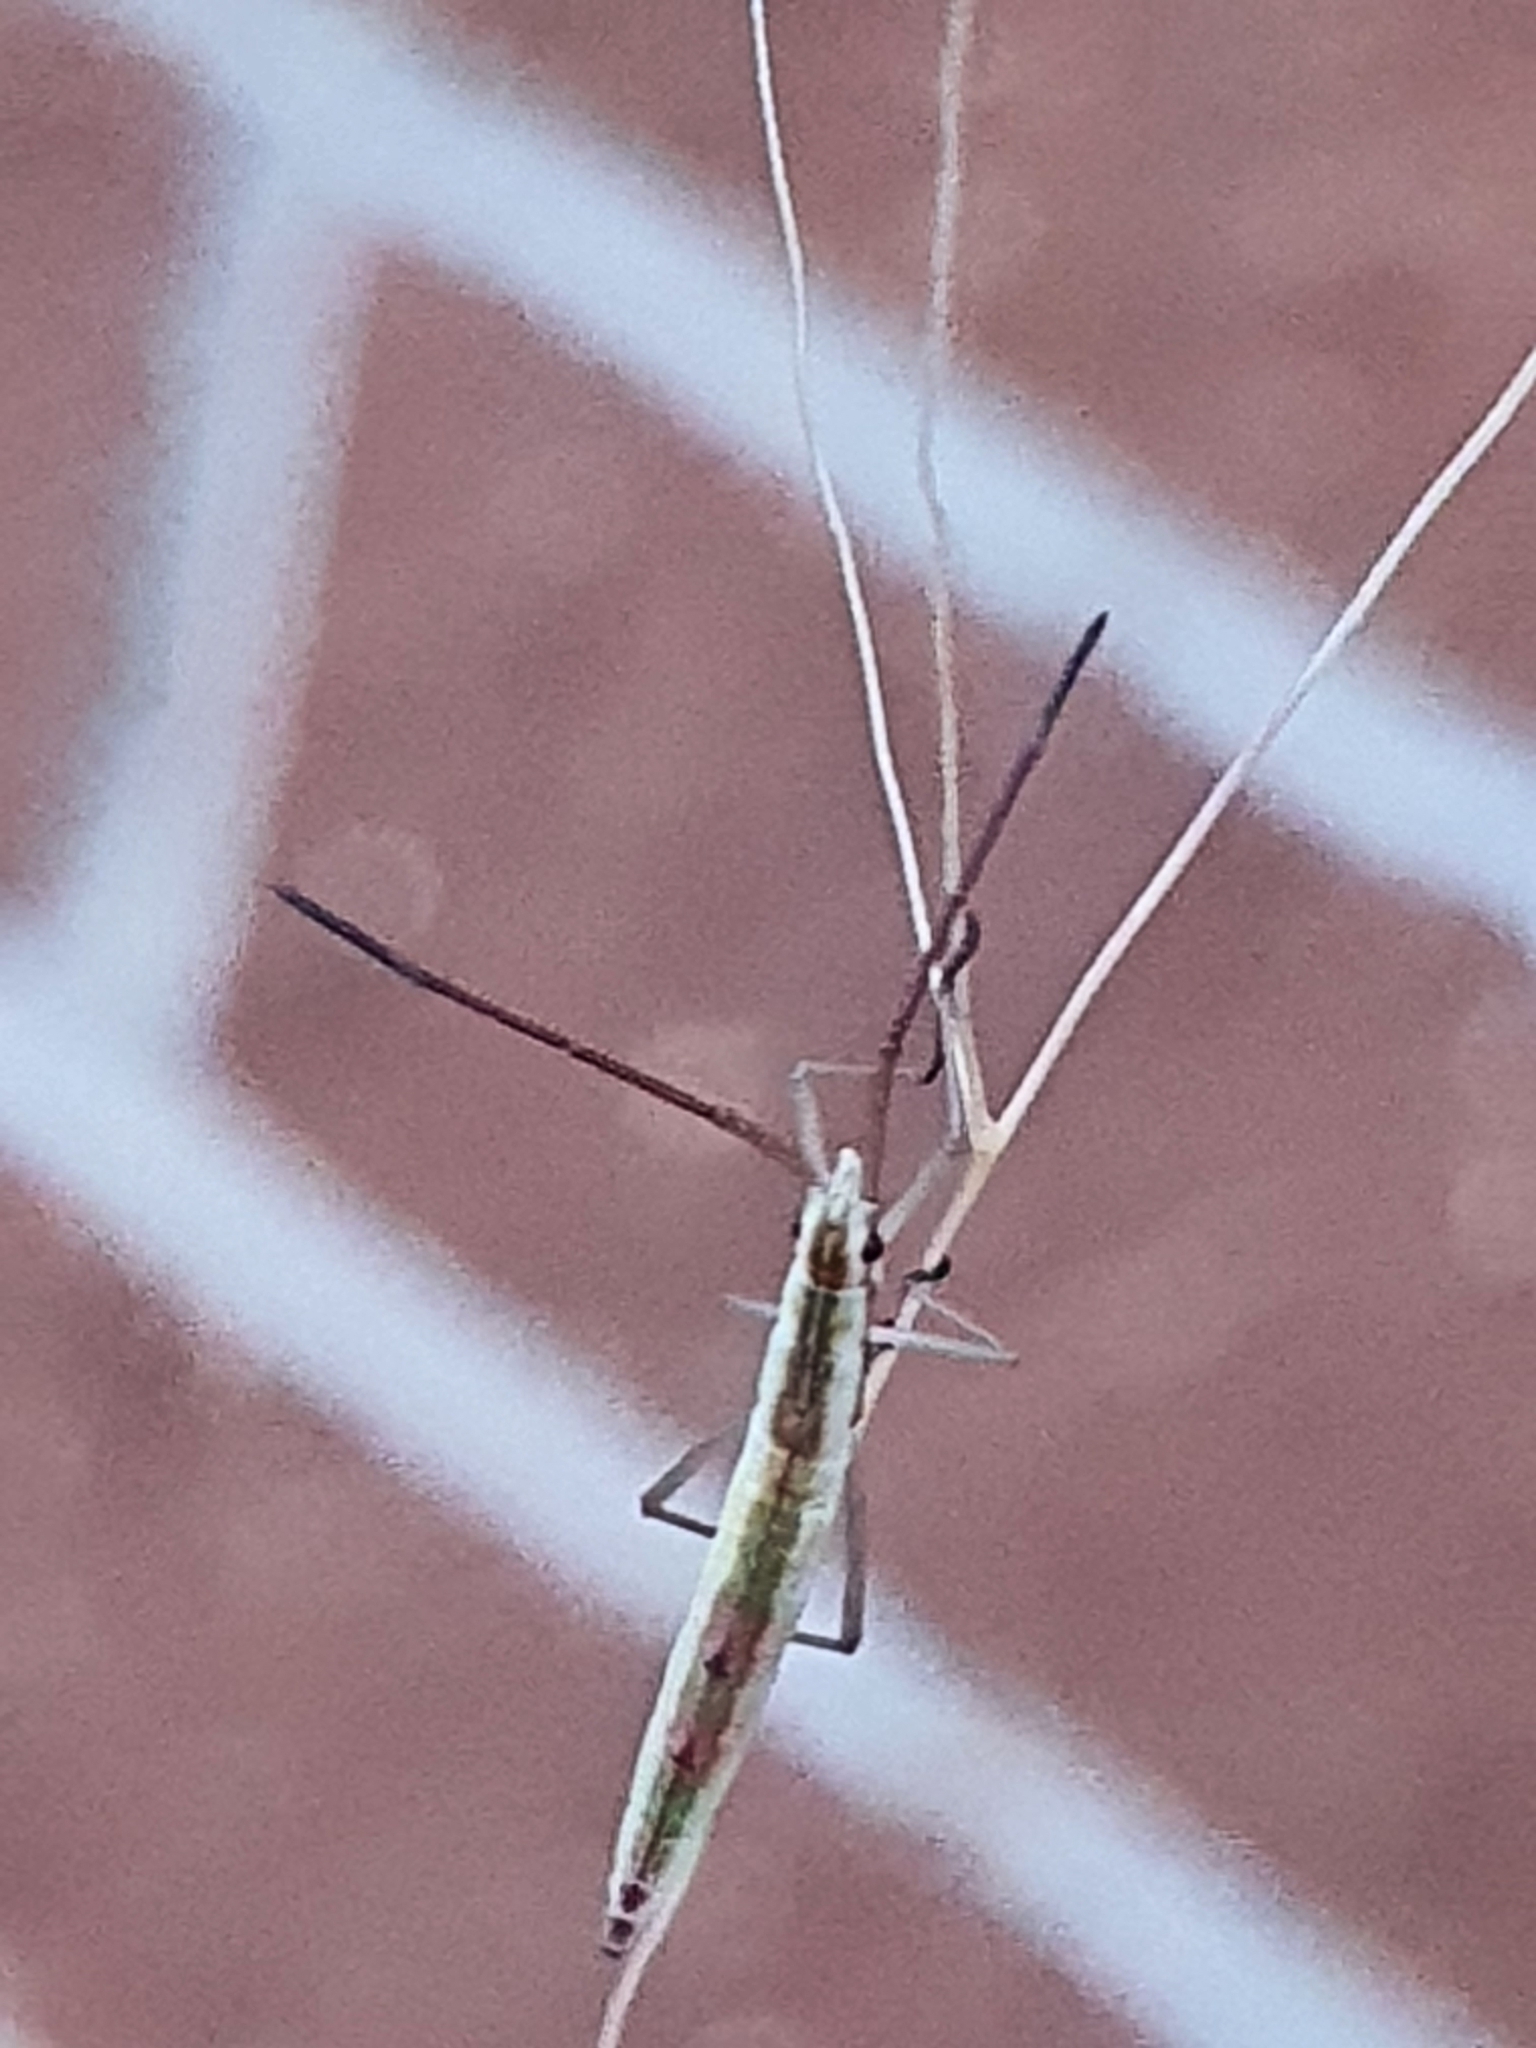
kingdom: Animalia
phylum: Arthropoda
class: Insecta
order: Hemiptera
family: Alydidae
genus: Mutusca
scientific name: Mutusca brevicornis
